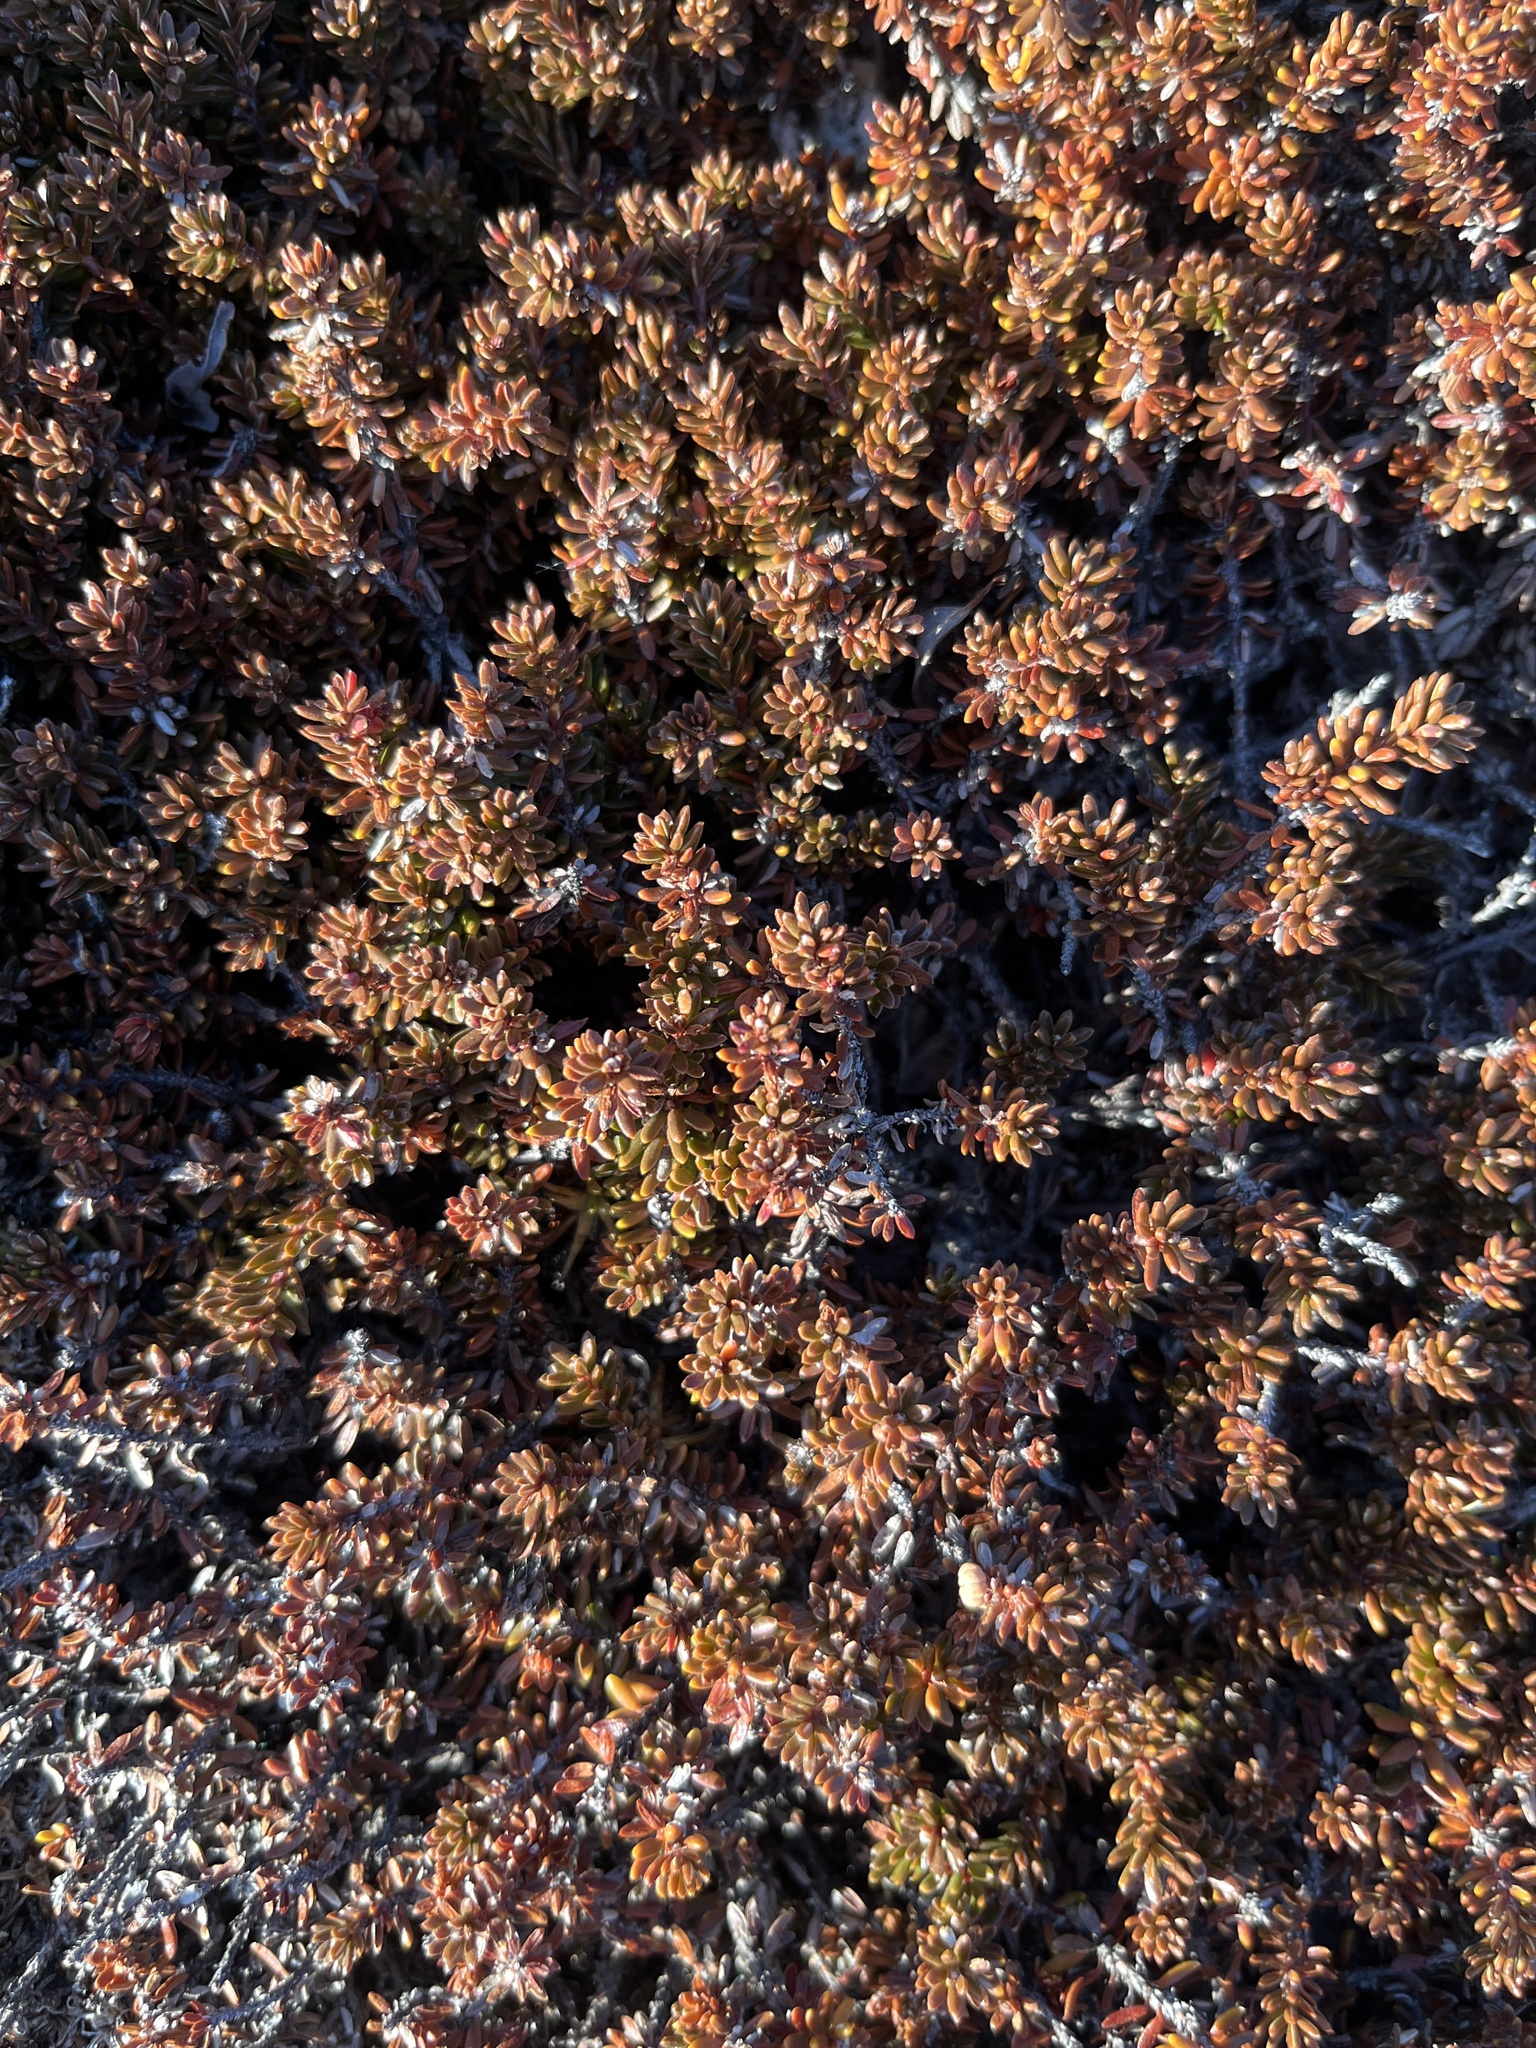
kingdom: Plantae
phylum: Tracheophyta
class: Magnoliopsida
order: Ericales
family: Ericaceae
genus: Empetrum
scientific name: Empetrum hermaphroditum
